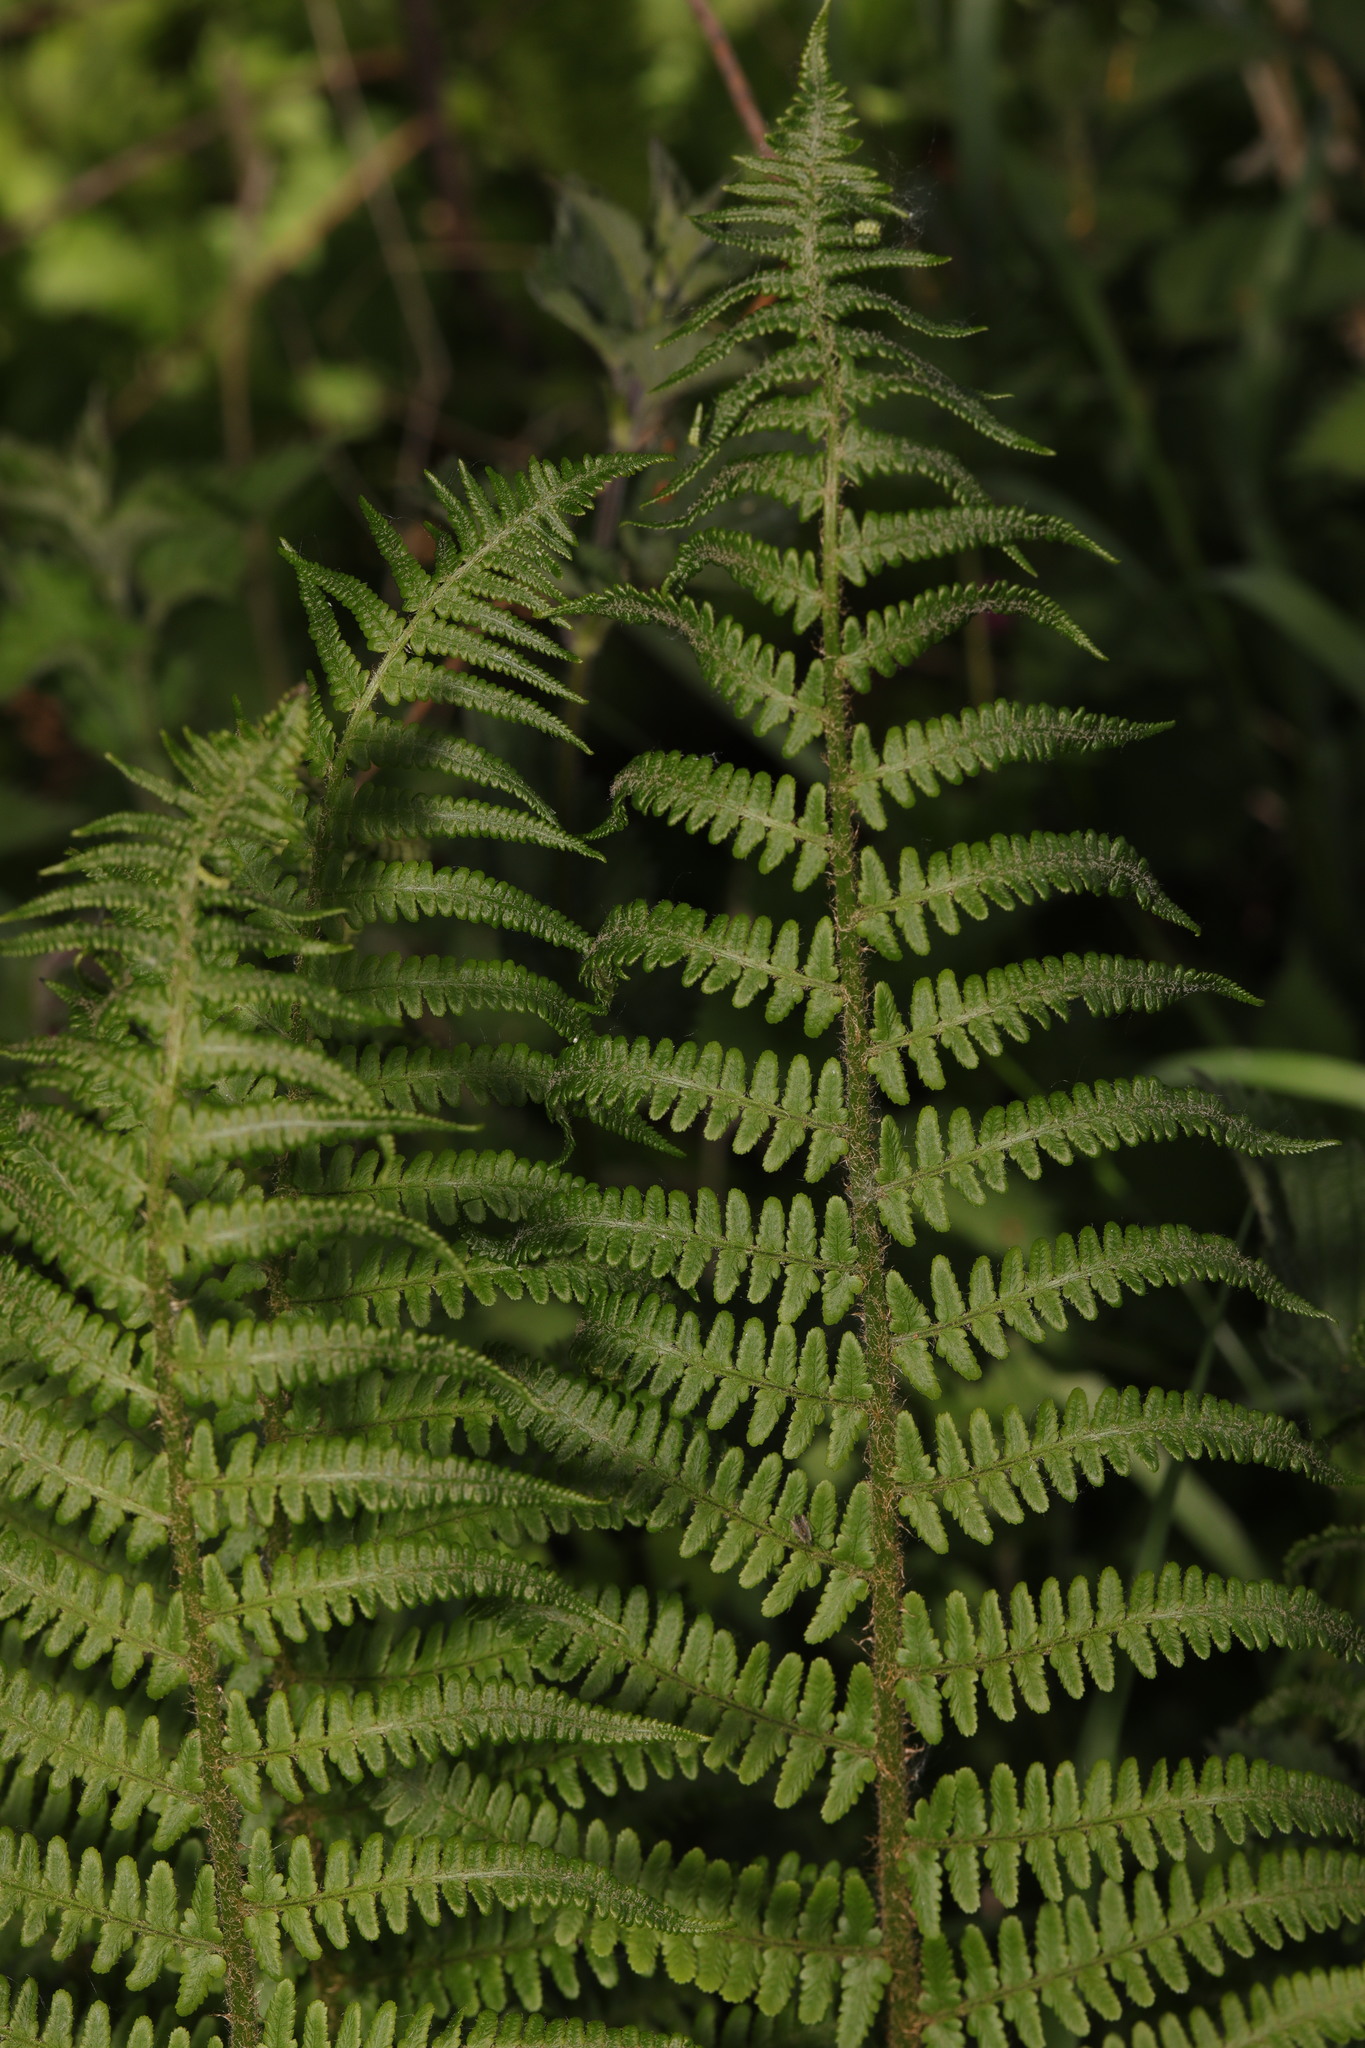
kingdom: Plantae
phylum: Tracheophyta
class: Polypodiopsida
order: Polypodiales
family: Dryopteridaceae
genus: Dryopteris
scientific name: Dryopteris filix-mas
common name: Male fern
